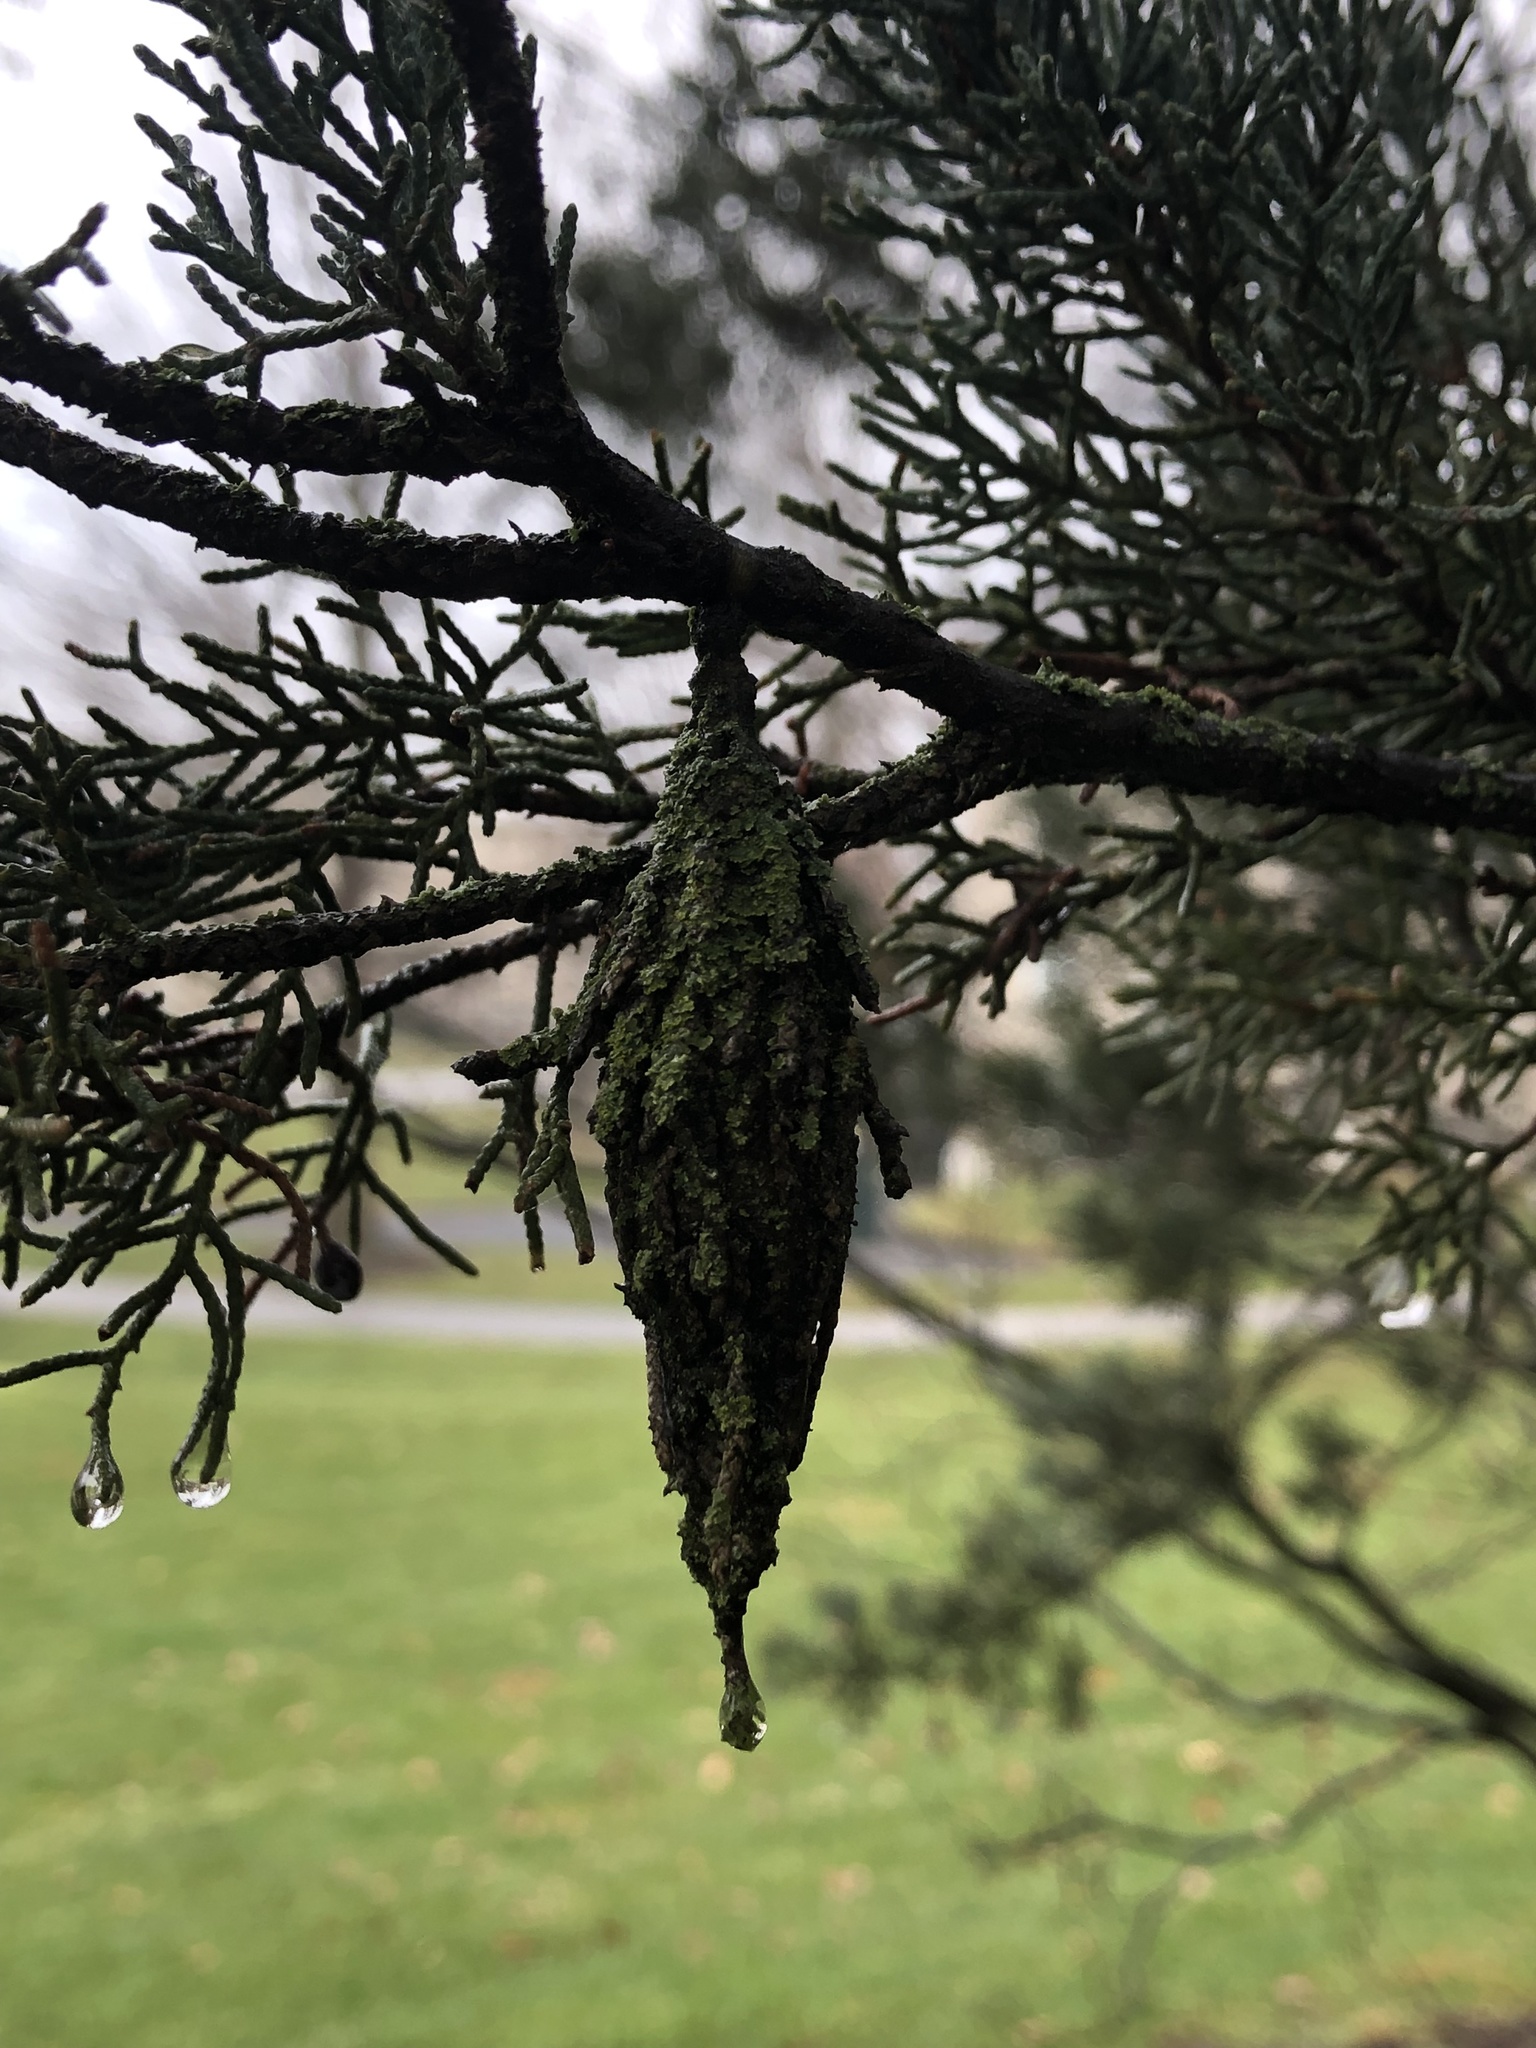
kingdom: Animalia
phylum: Arthropoda
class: Insecta
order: Lepidoptera
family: Psychidae
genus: Thyridopteryx
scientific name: Thyridopteryx ephemeraeformis
